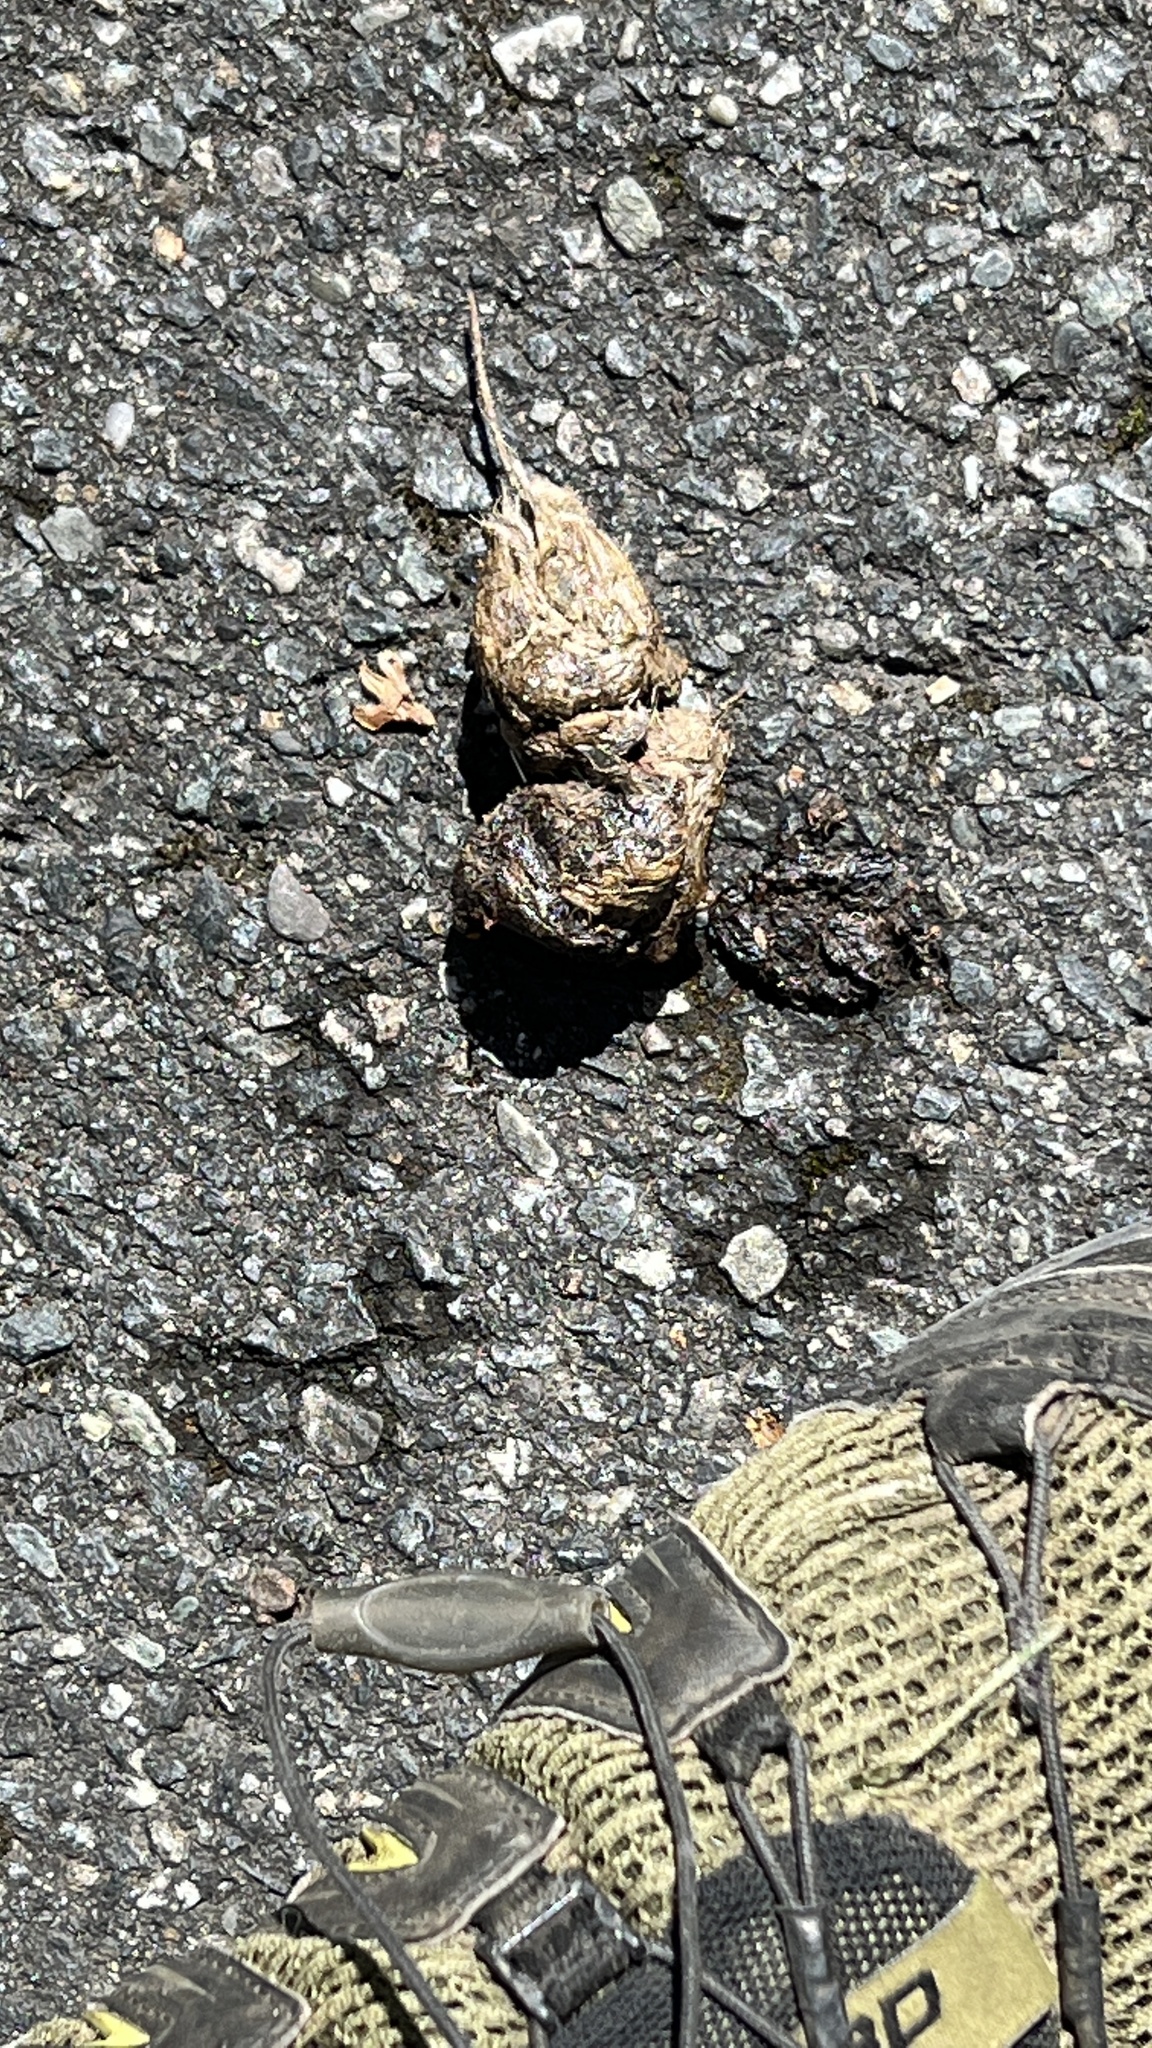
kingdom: Animalia
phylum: Chordata
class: Mammalia
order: Carnivora
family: Canidae
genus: Canis
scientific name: Canis latrans
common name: Coyote
